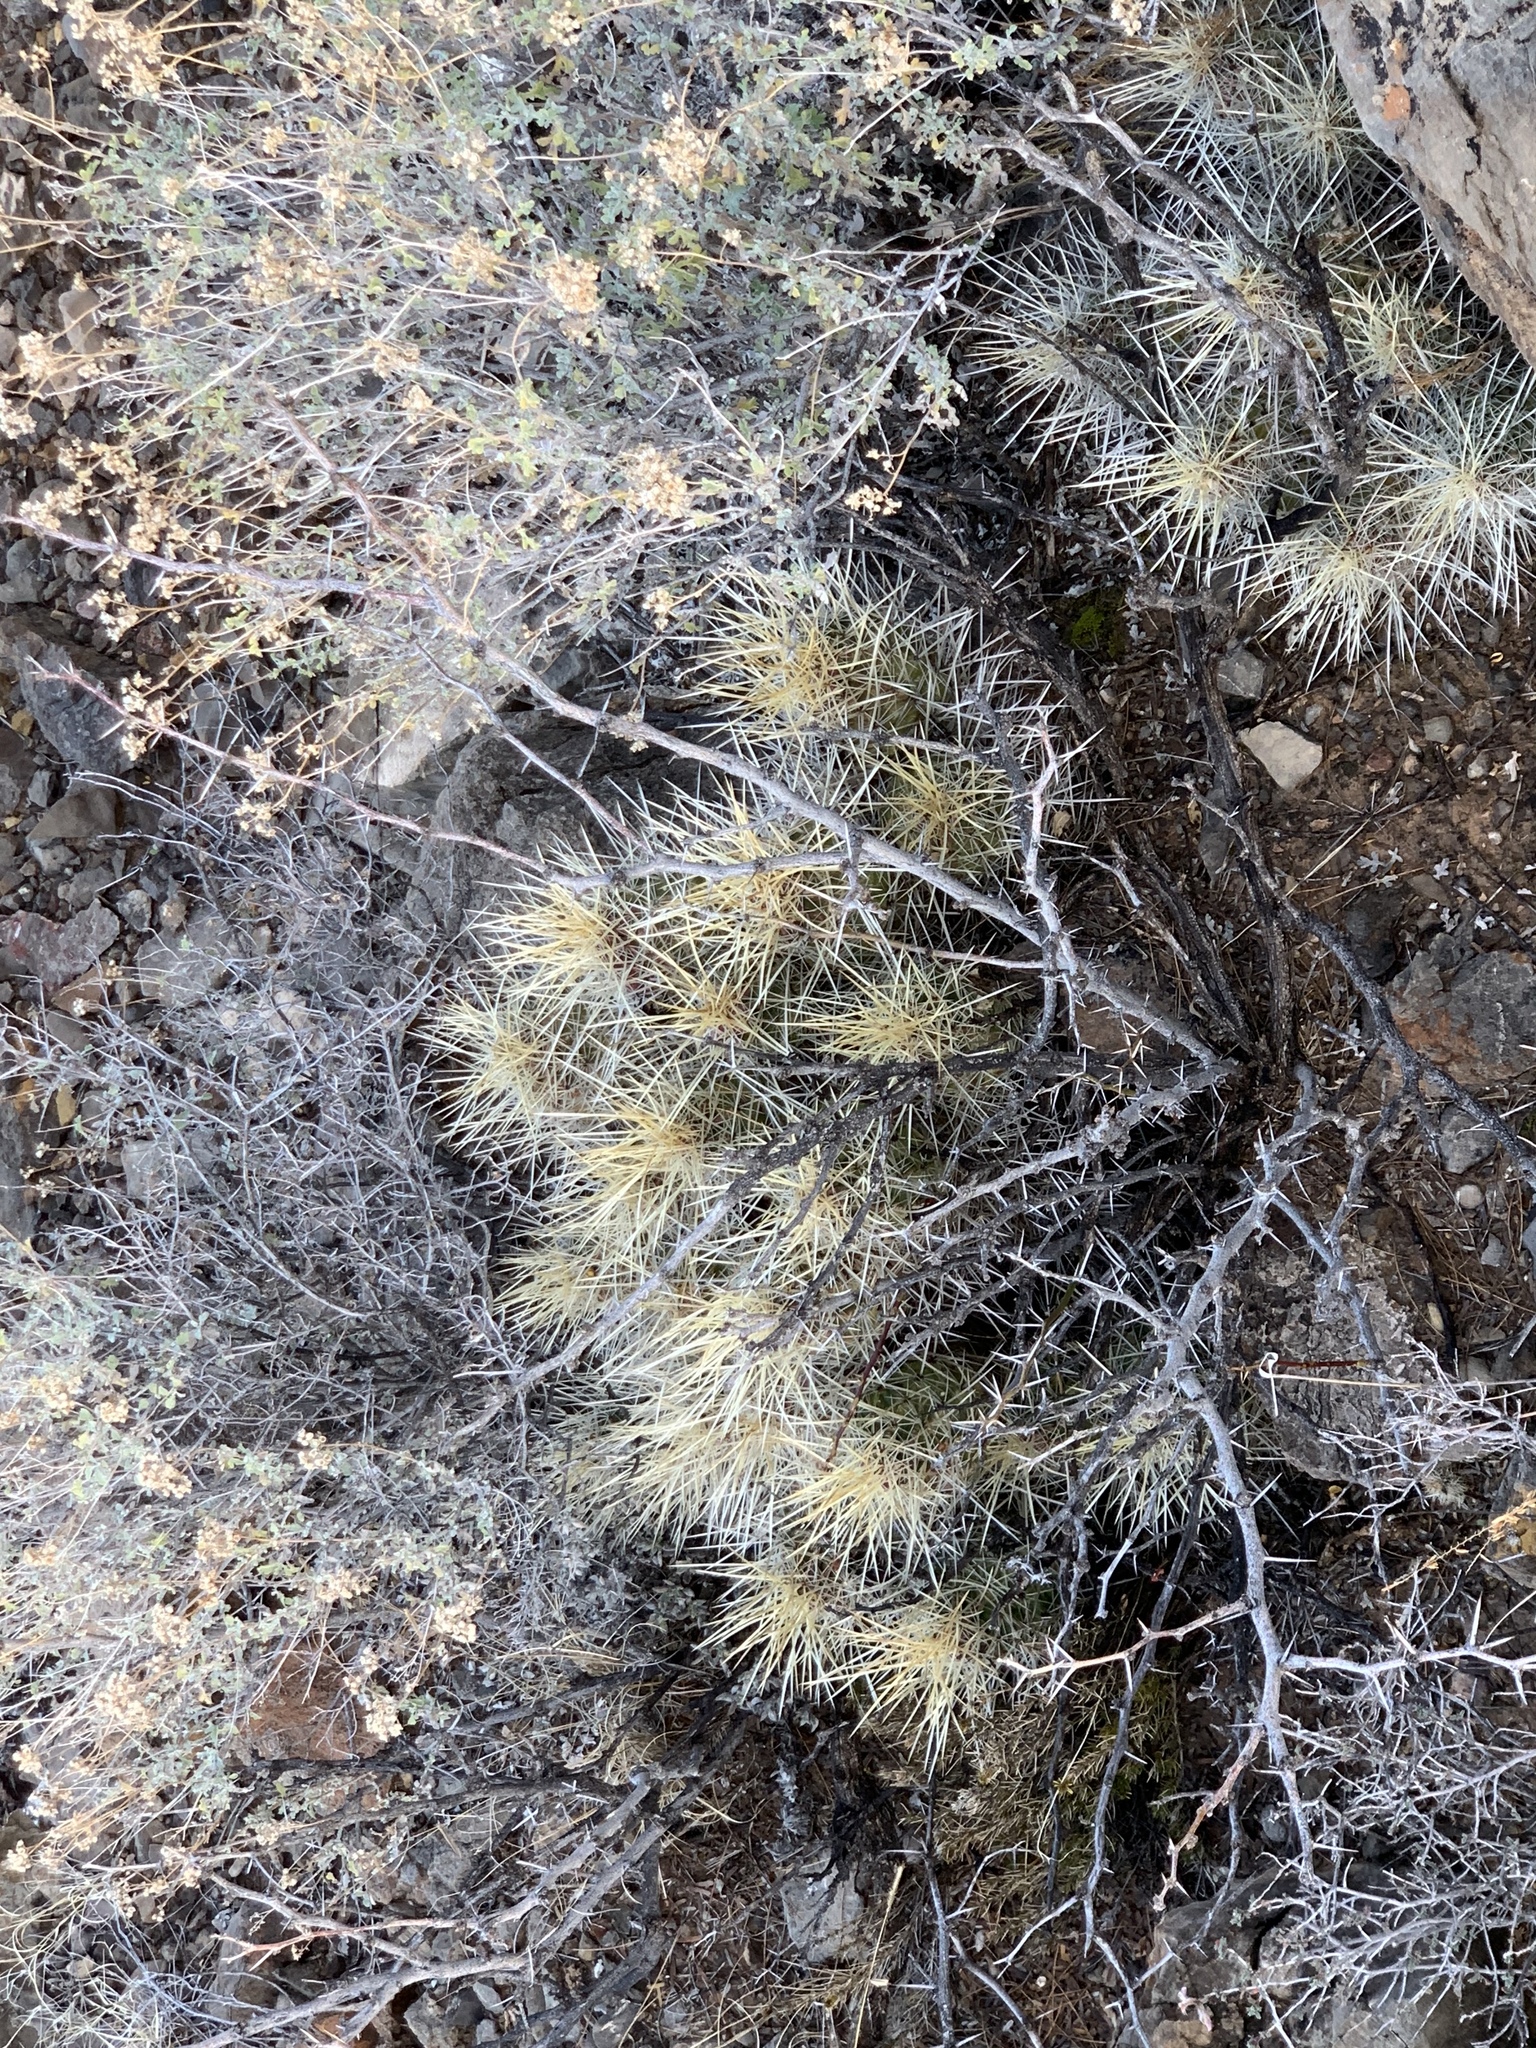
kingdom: Plantae
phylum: Tracheophyta
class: Magnoliopsida
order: Caryophyllales
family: Cactaceae
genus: Echinocereus
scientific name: Echinocereus stramineus
